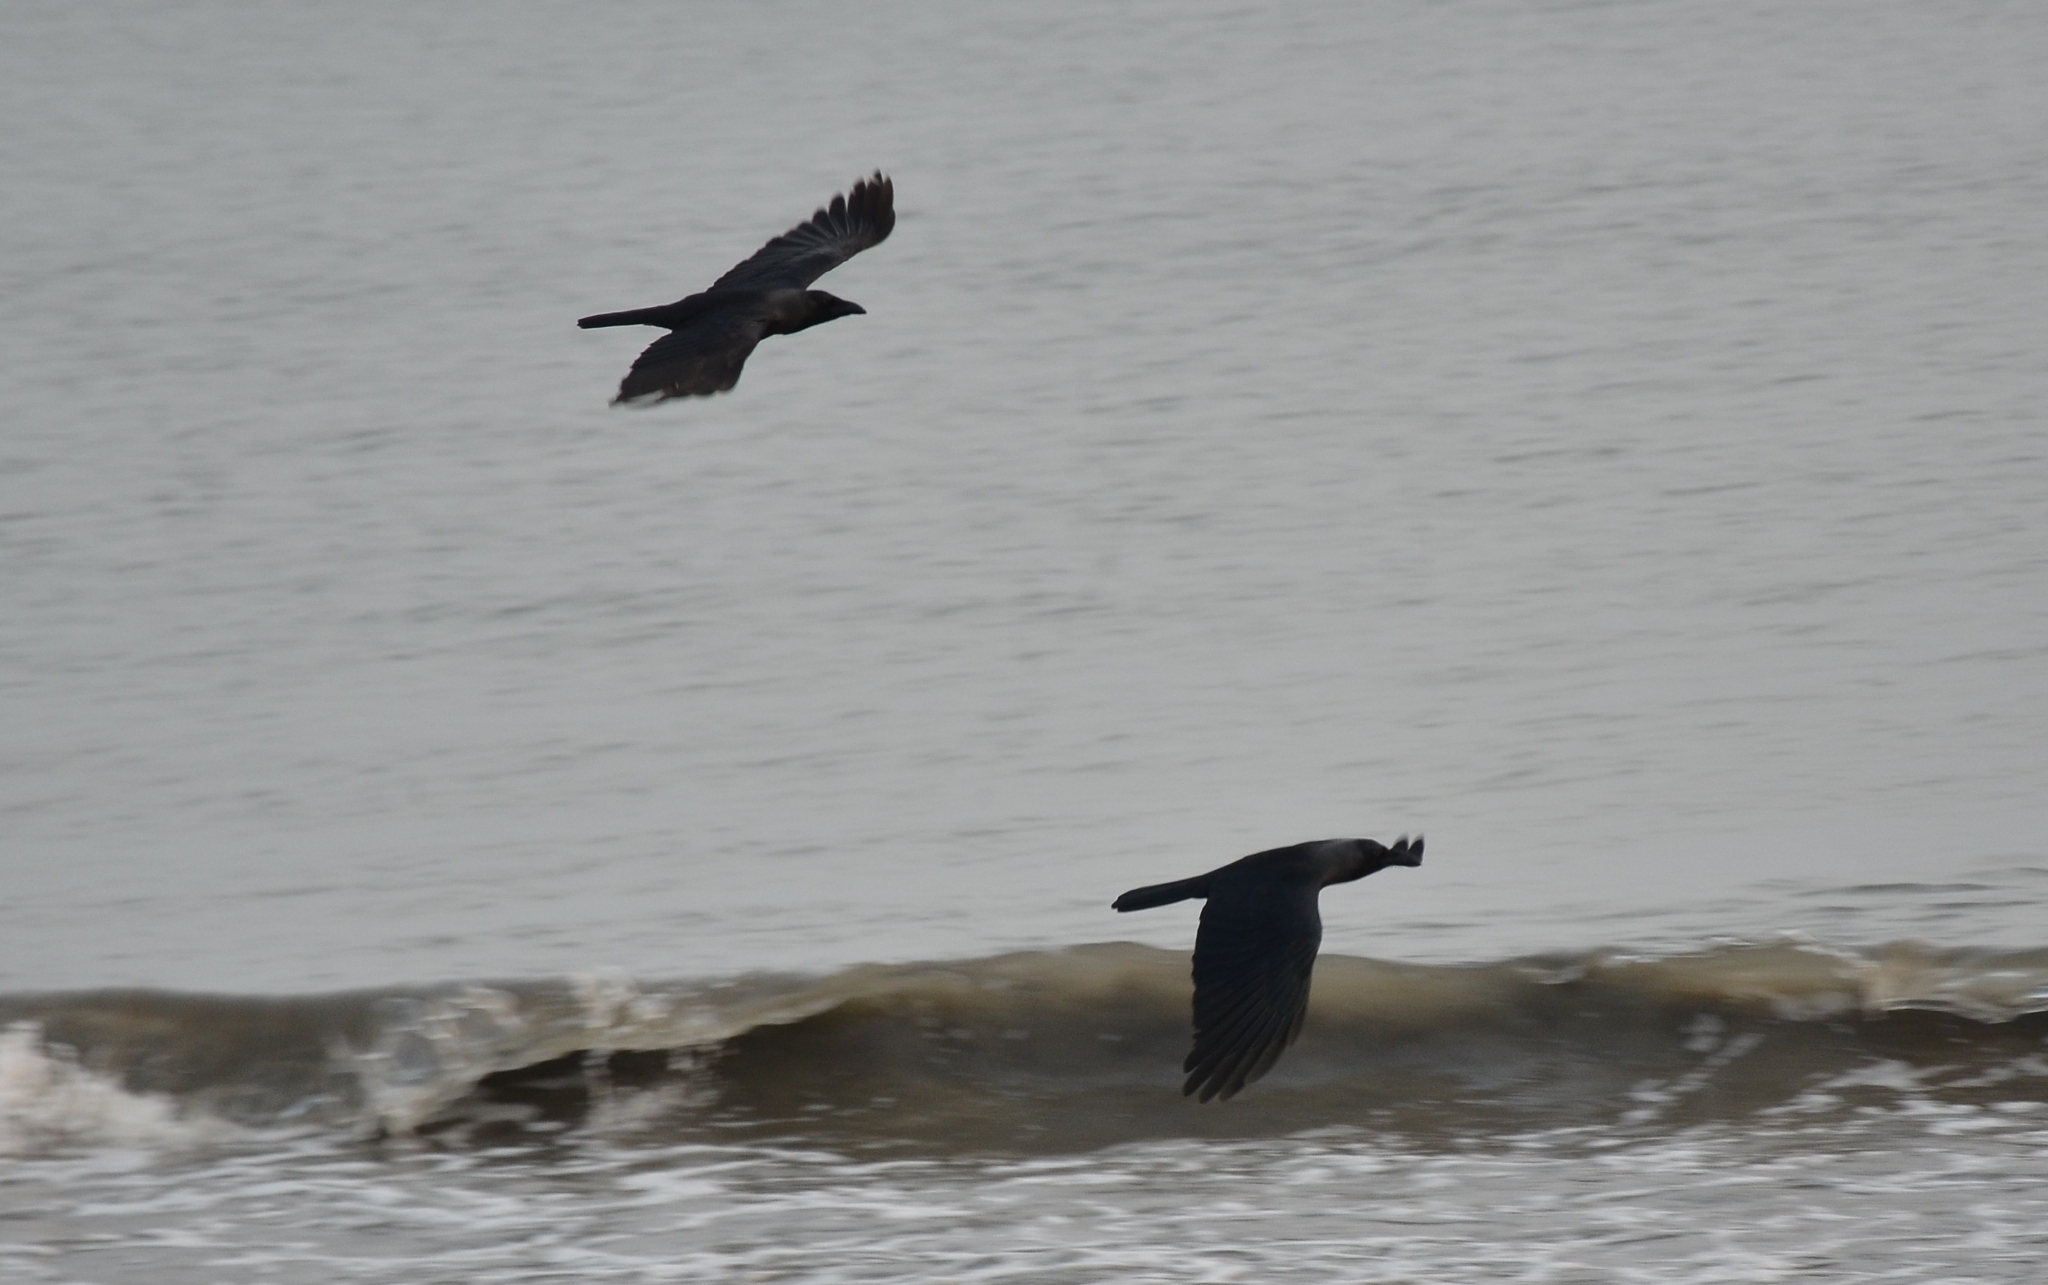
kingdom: Animalia
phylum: Chordata
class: Aves
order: Passeriformes
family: Corvidae
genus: Corvus
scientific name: Corvus splendens
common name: House crow
